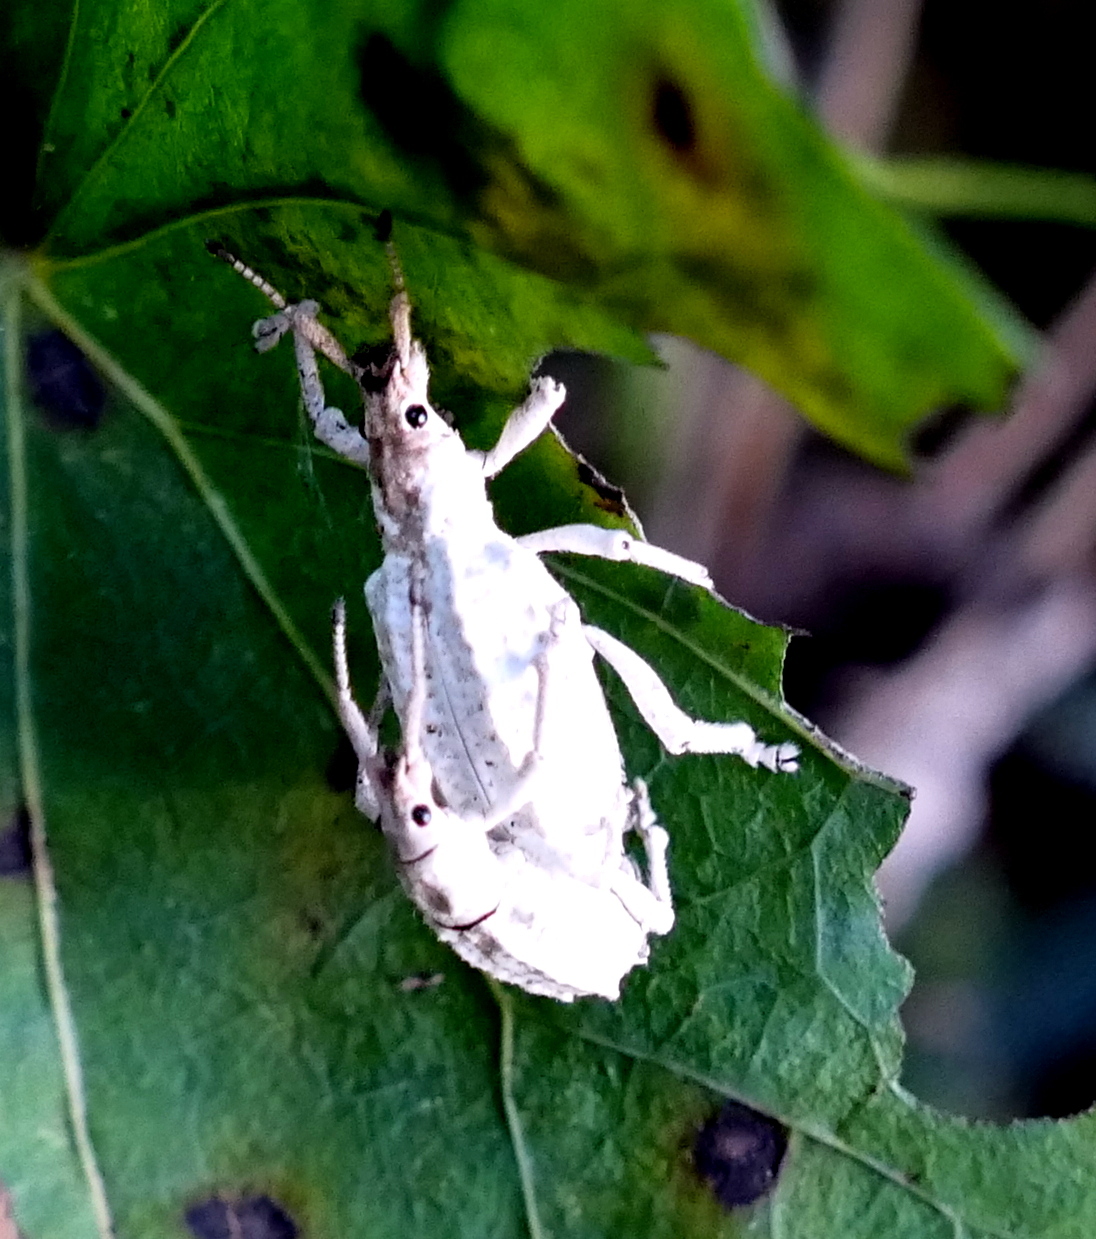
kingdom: Animalia
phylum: Arthropoda
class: Insecta
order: Coleoptera
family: Curculionidae
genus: Compsus
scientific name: Compsus niveus
